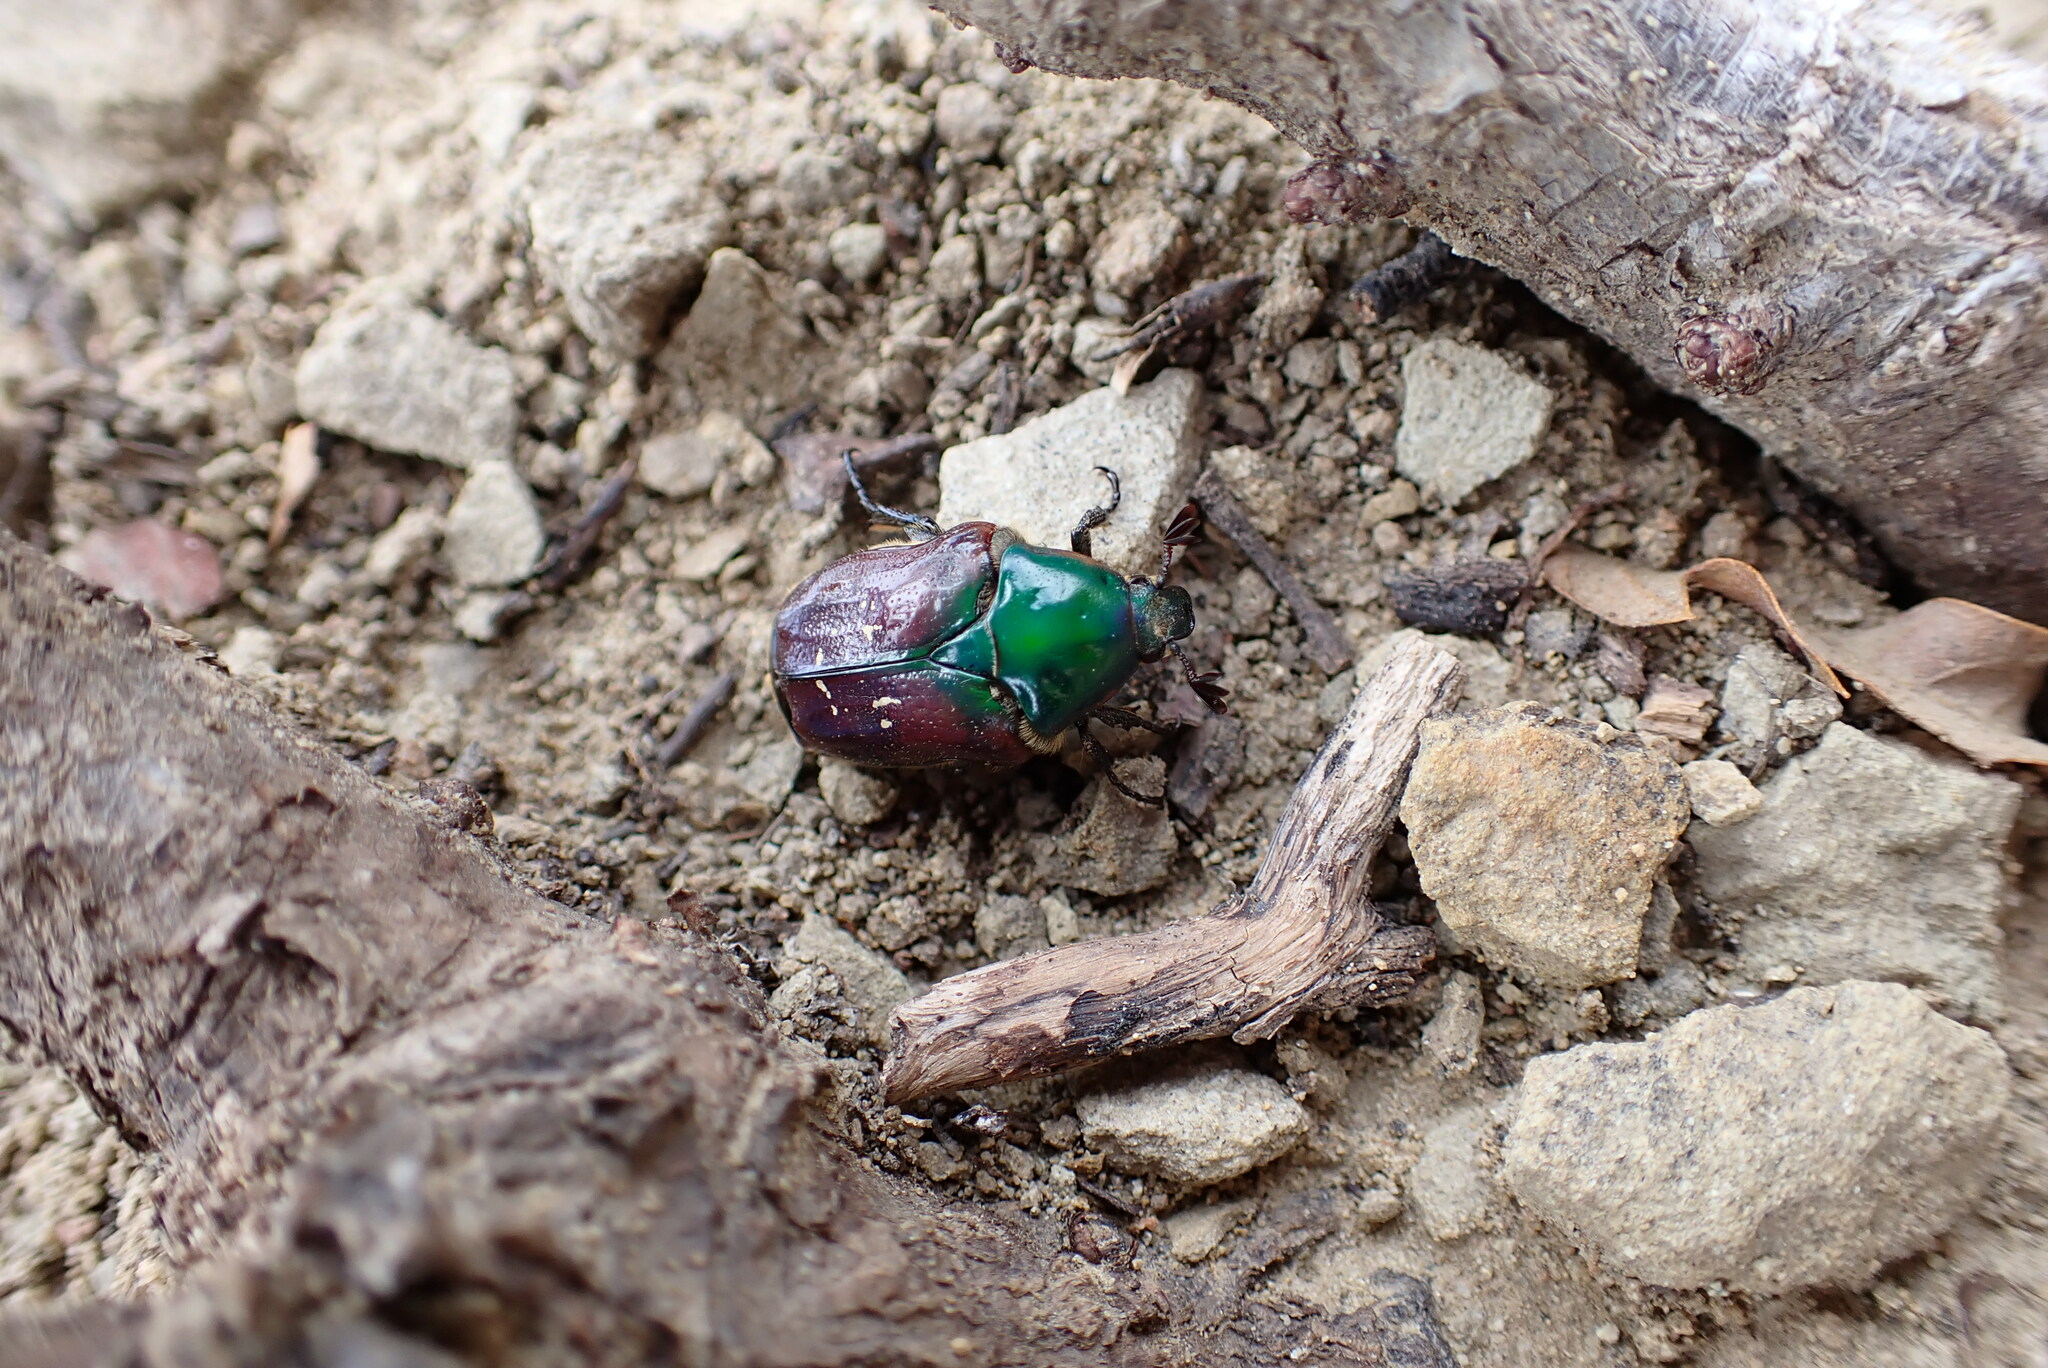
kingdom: Animalia
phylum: Arthropoda
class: Insecta
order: Coleoptera
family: Scarabaeidae
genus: Euphoria
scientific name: Euphoria fulgida
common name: Emerald euphoria
